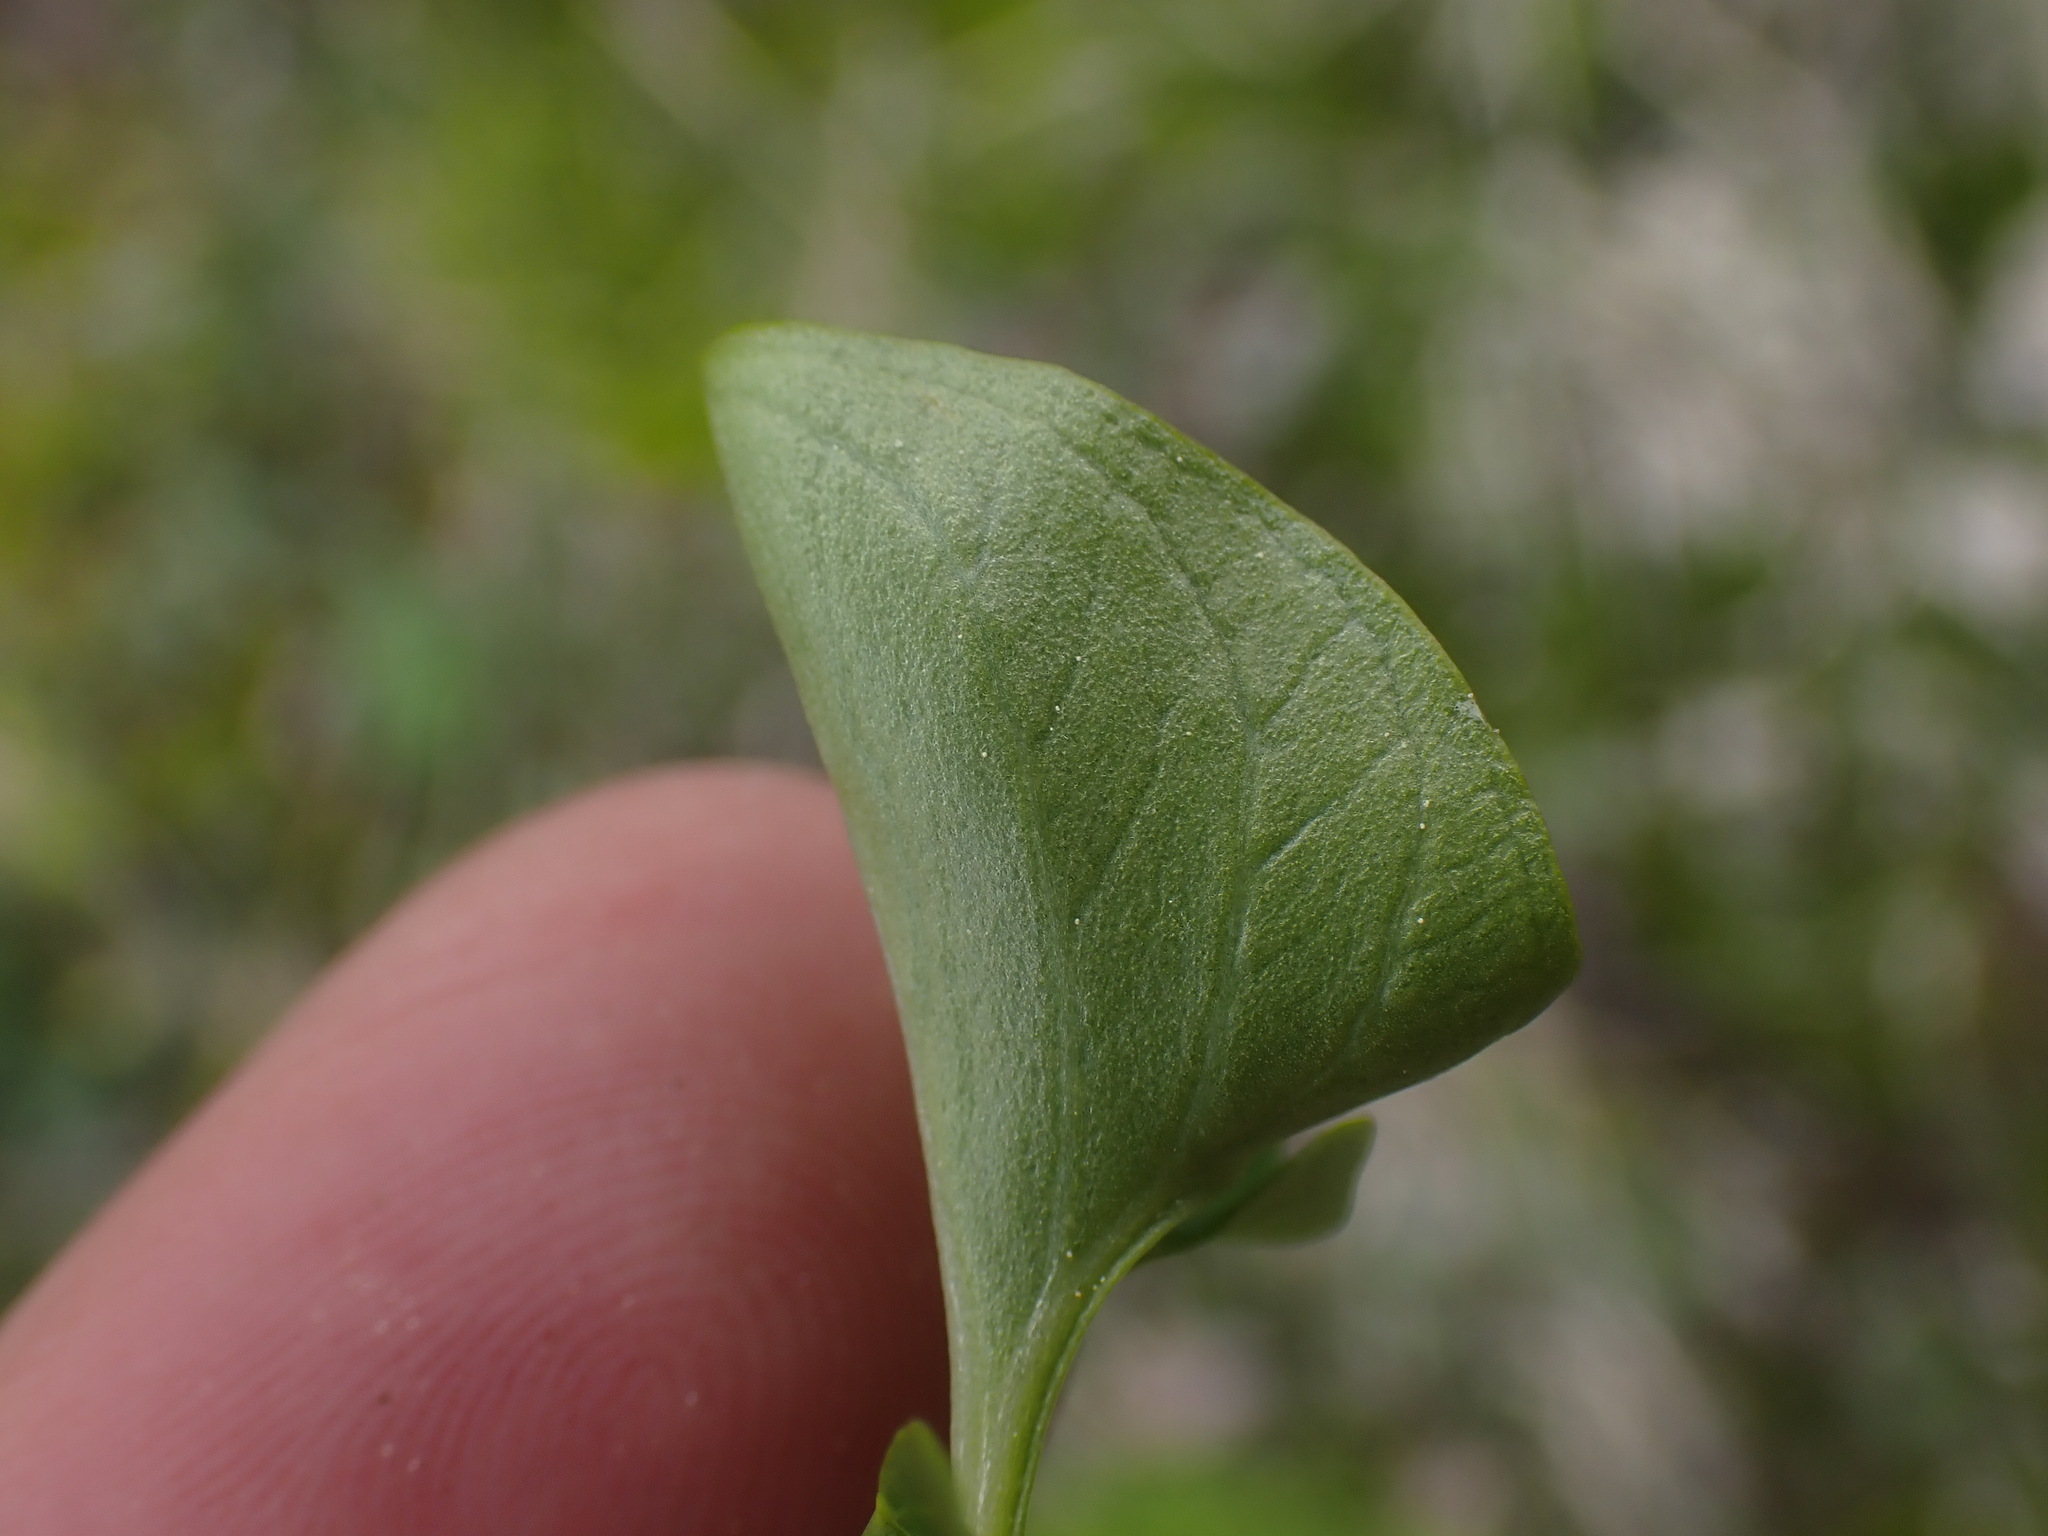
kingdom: Plantae
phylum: Tracheophyta
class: Magnoliopsida
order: Celastrales
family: Parnassiaceae
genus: Parnassia
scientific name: Parnassia fimbriata
